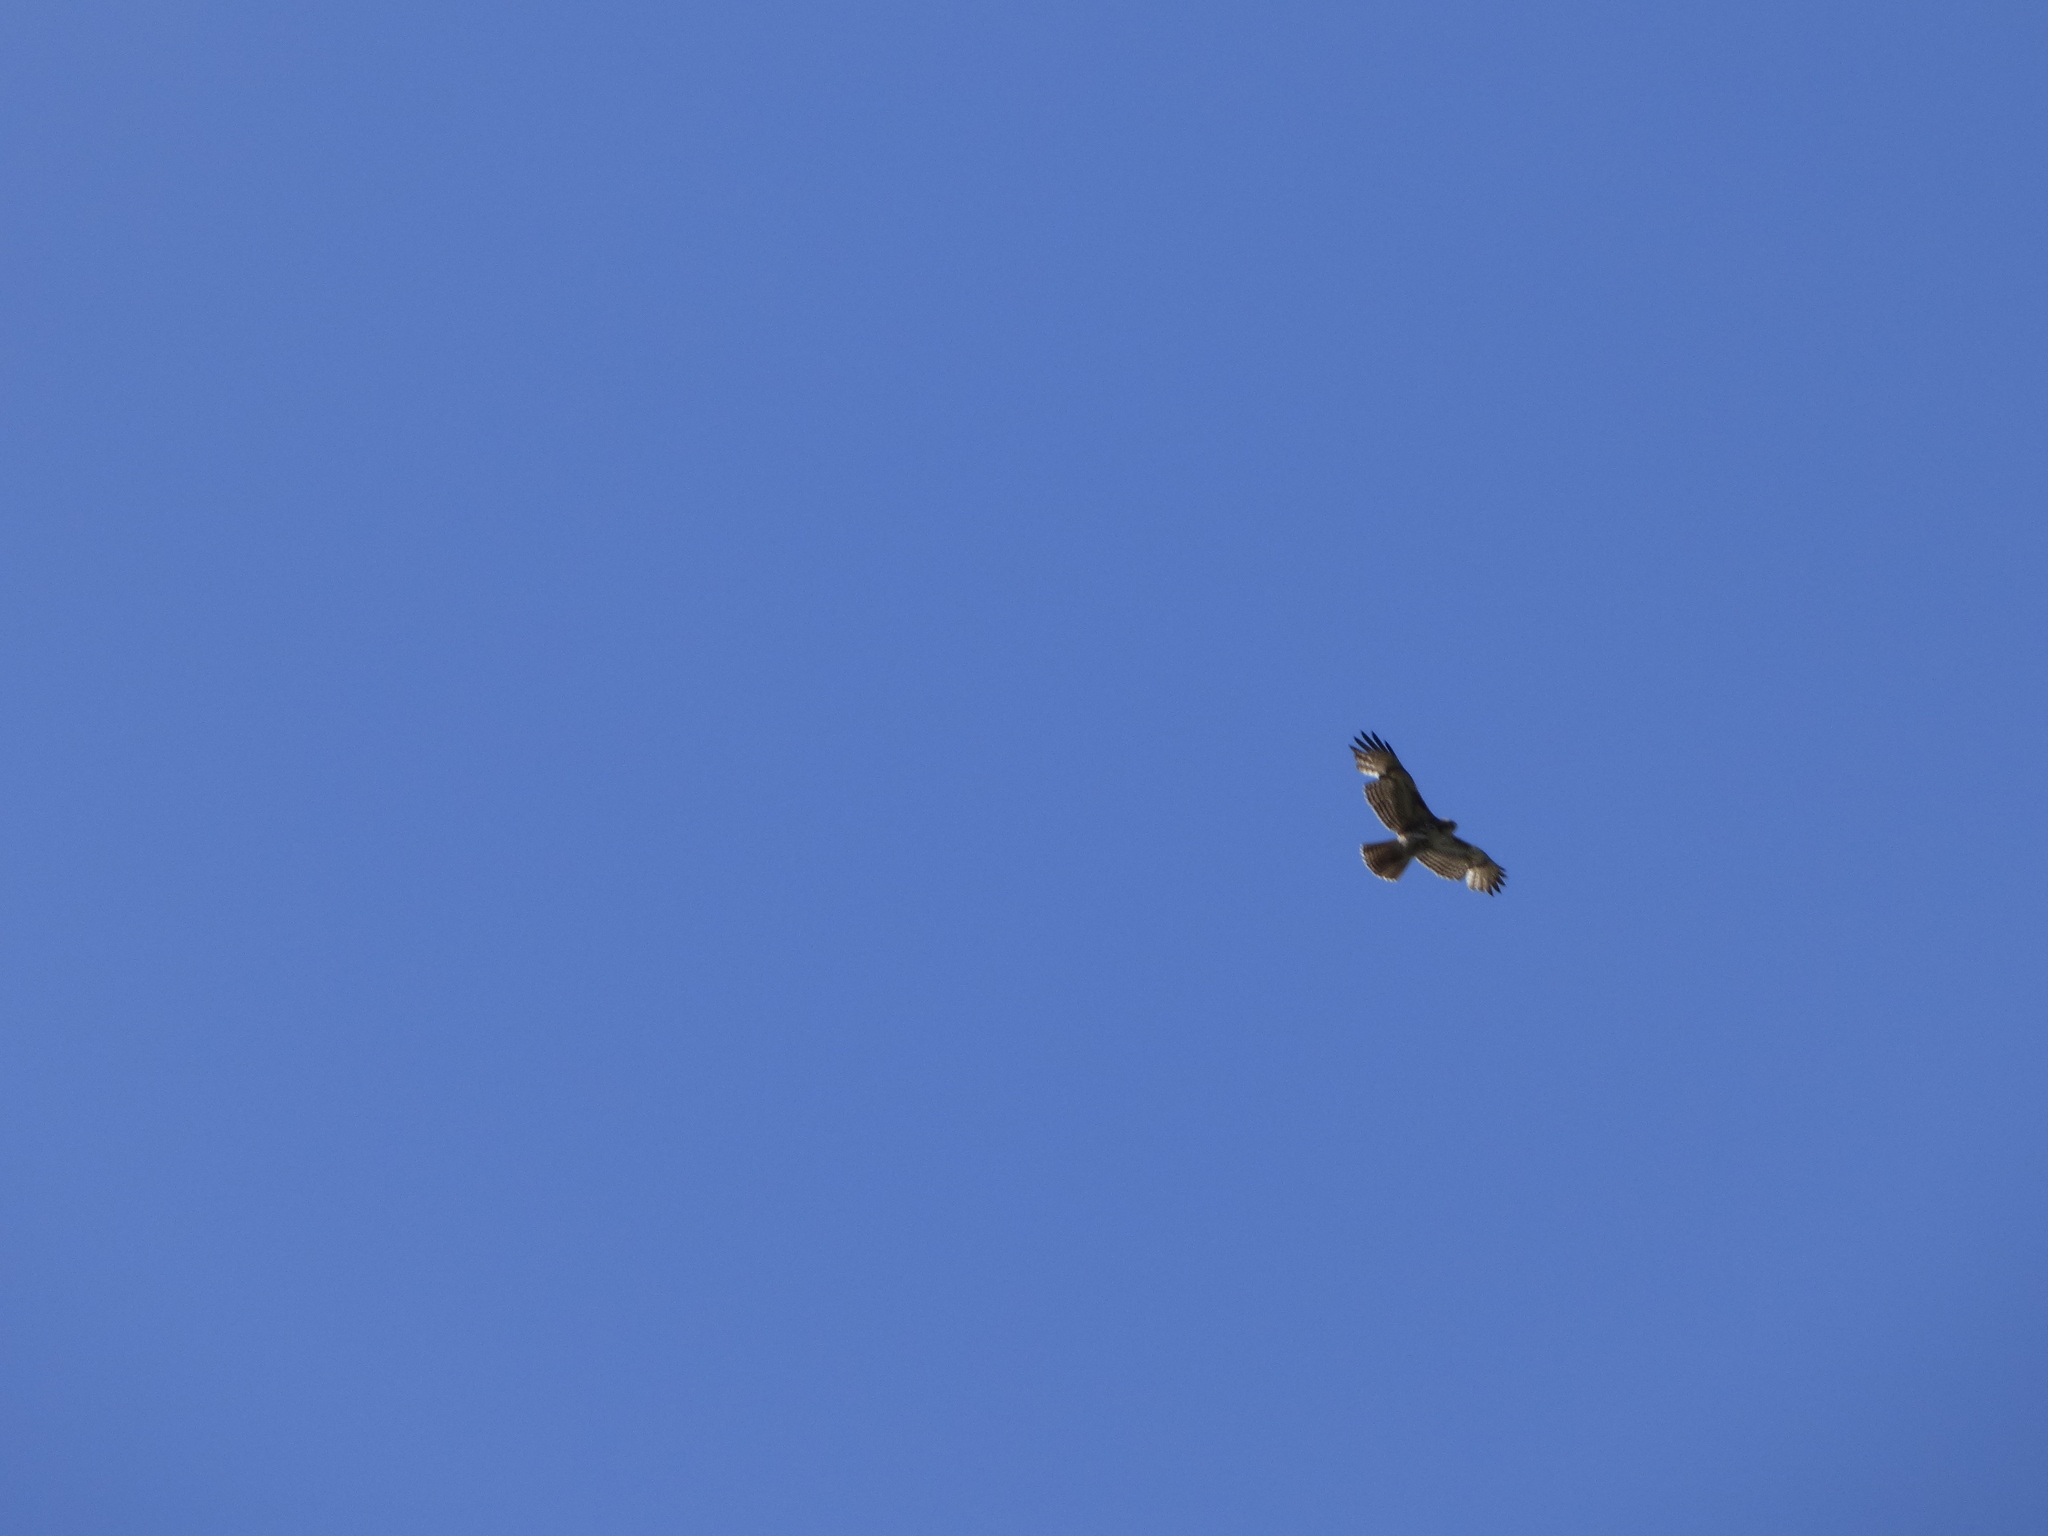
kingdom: Animalia
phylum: Chordata
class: Aves
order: Accipitriformes
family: Accipitridae
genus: Buteo
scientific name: Buteo jamaicensis
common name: Red-tailed hawk
